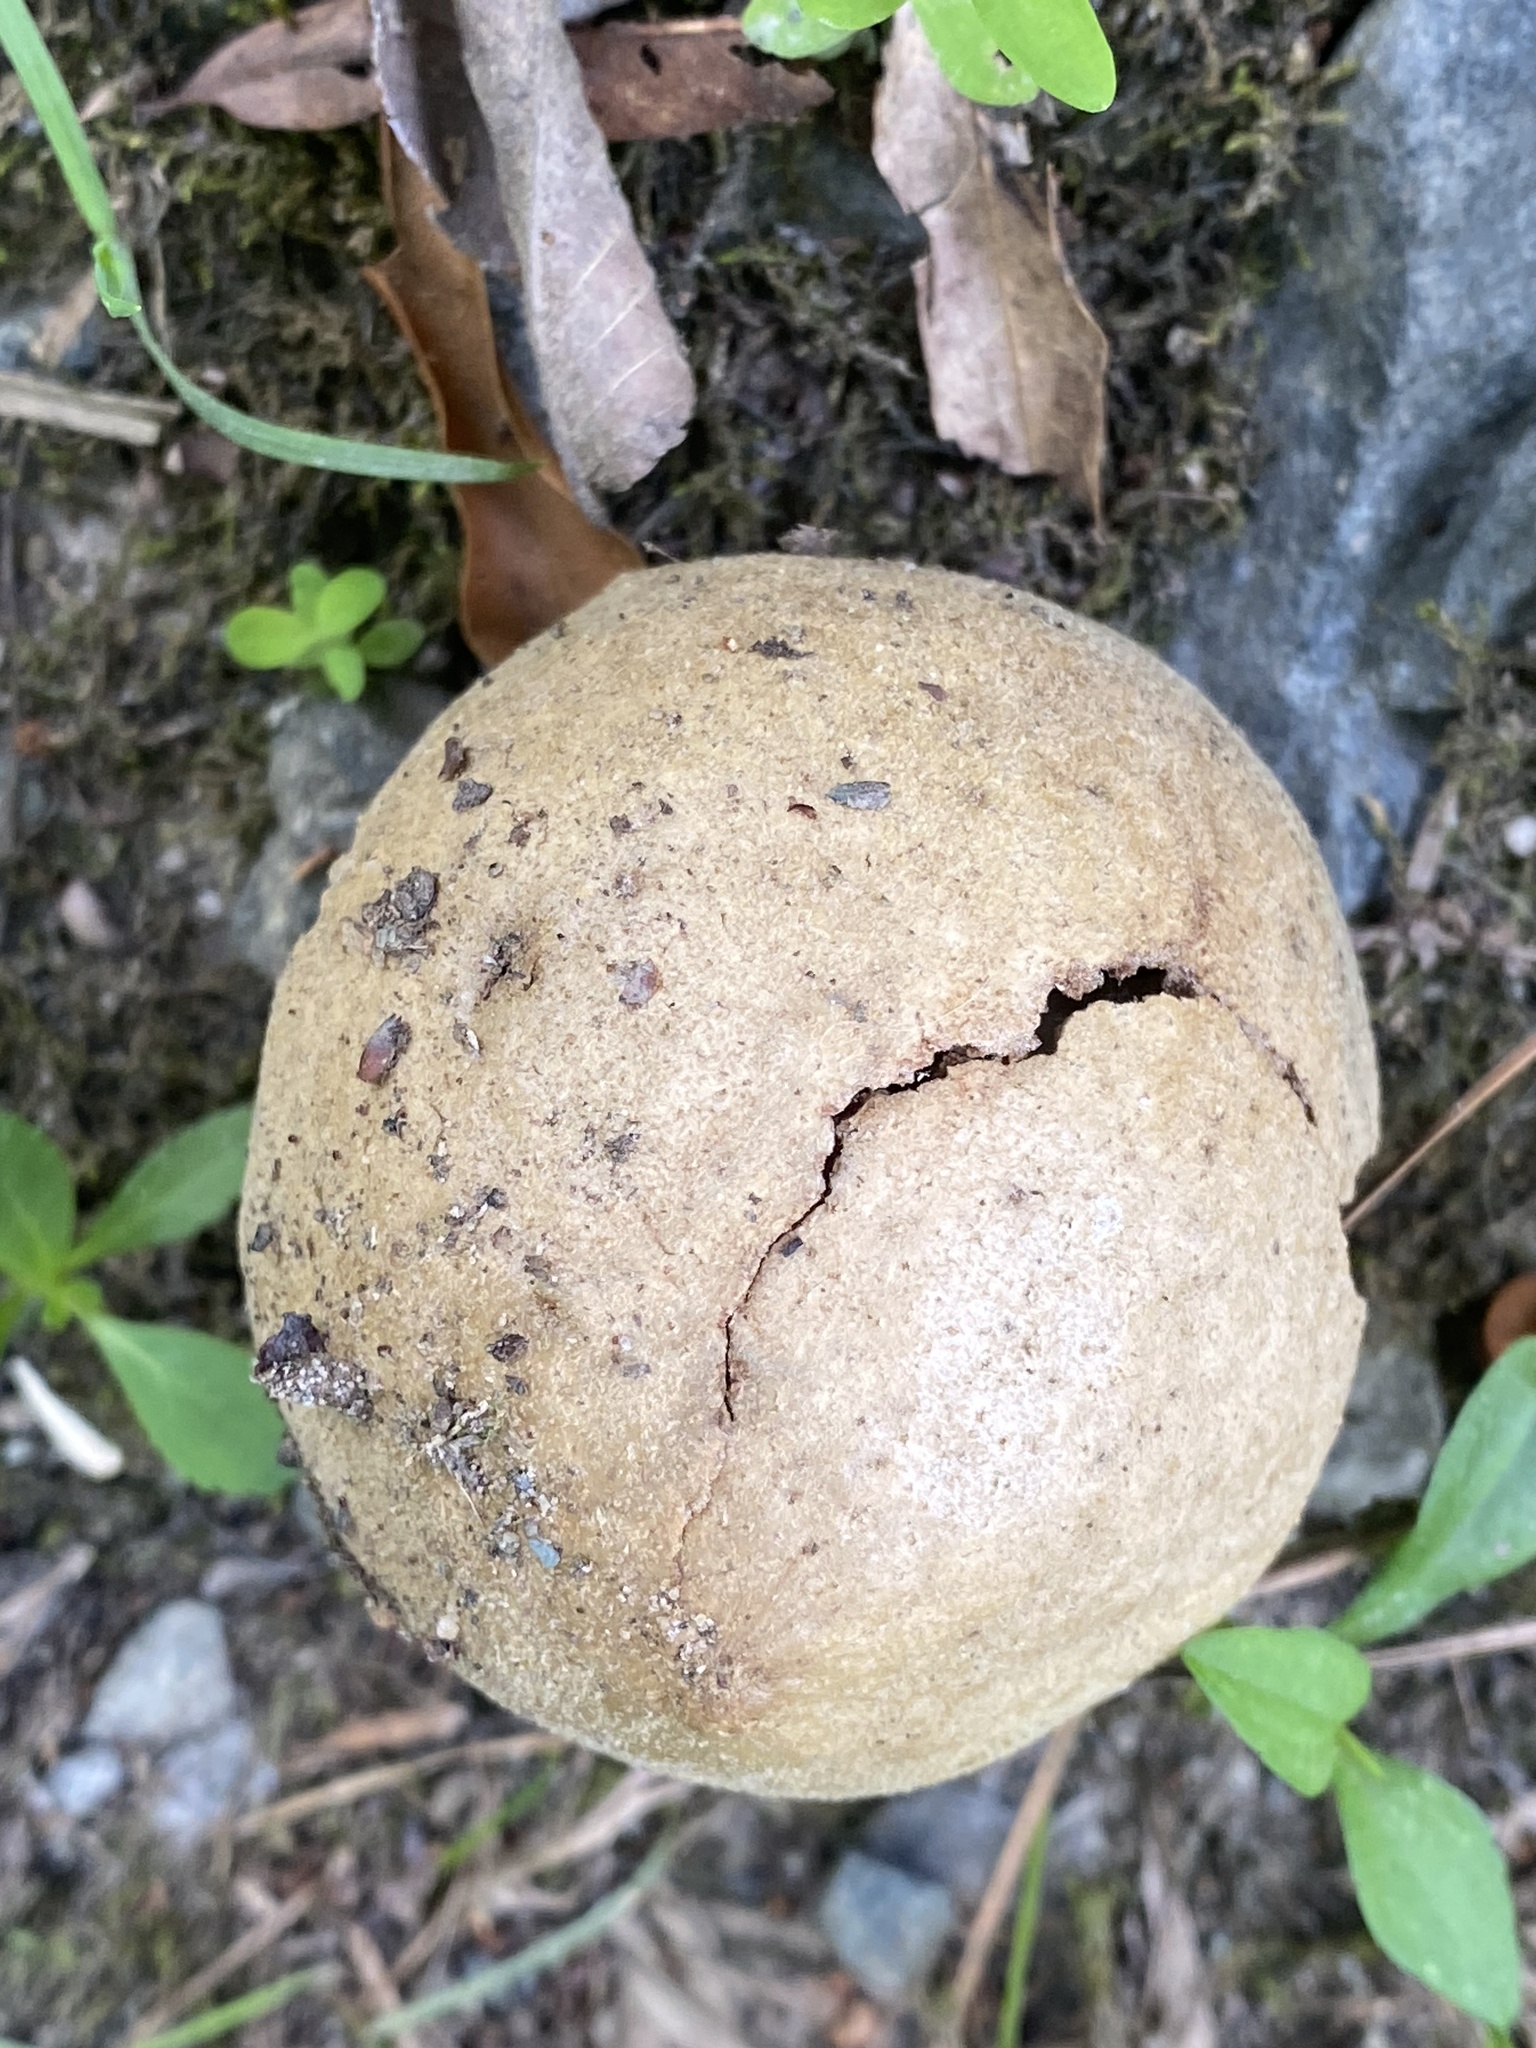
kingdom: Animalia
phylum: Arthropoda
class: Insecta
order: Hymenoptera
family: Cynipidae
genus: Amphibolips
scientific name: Amphibolips
